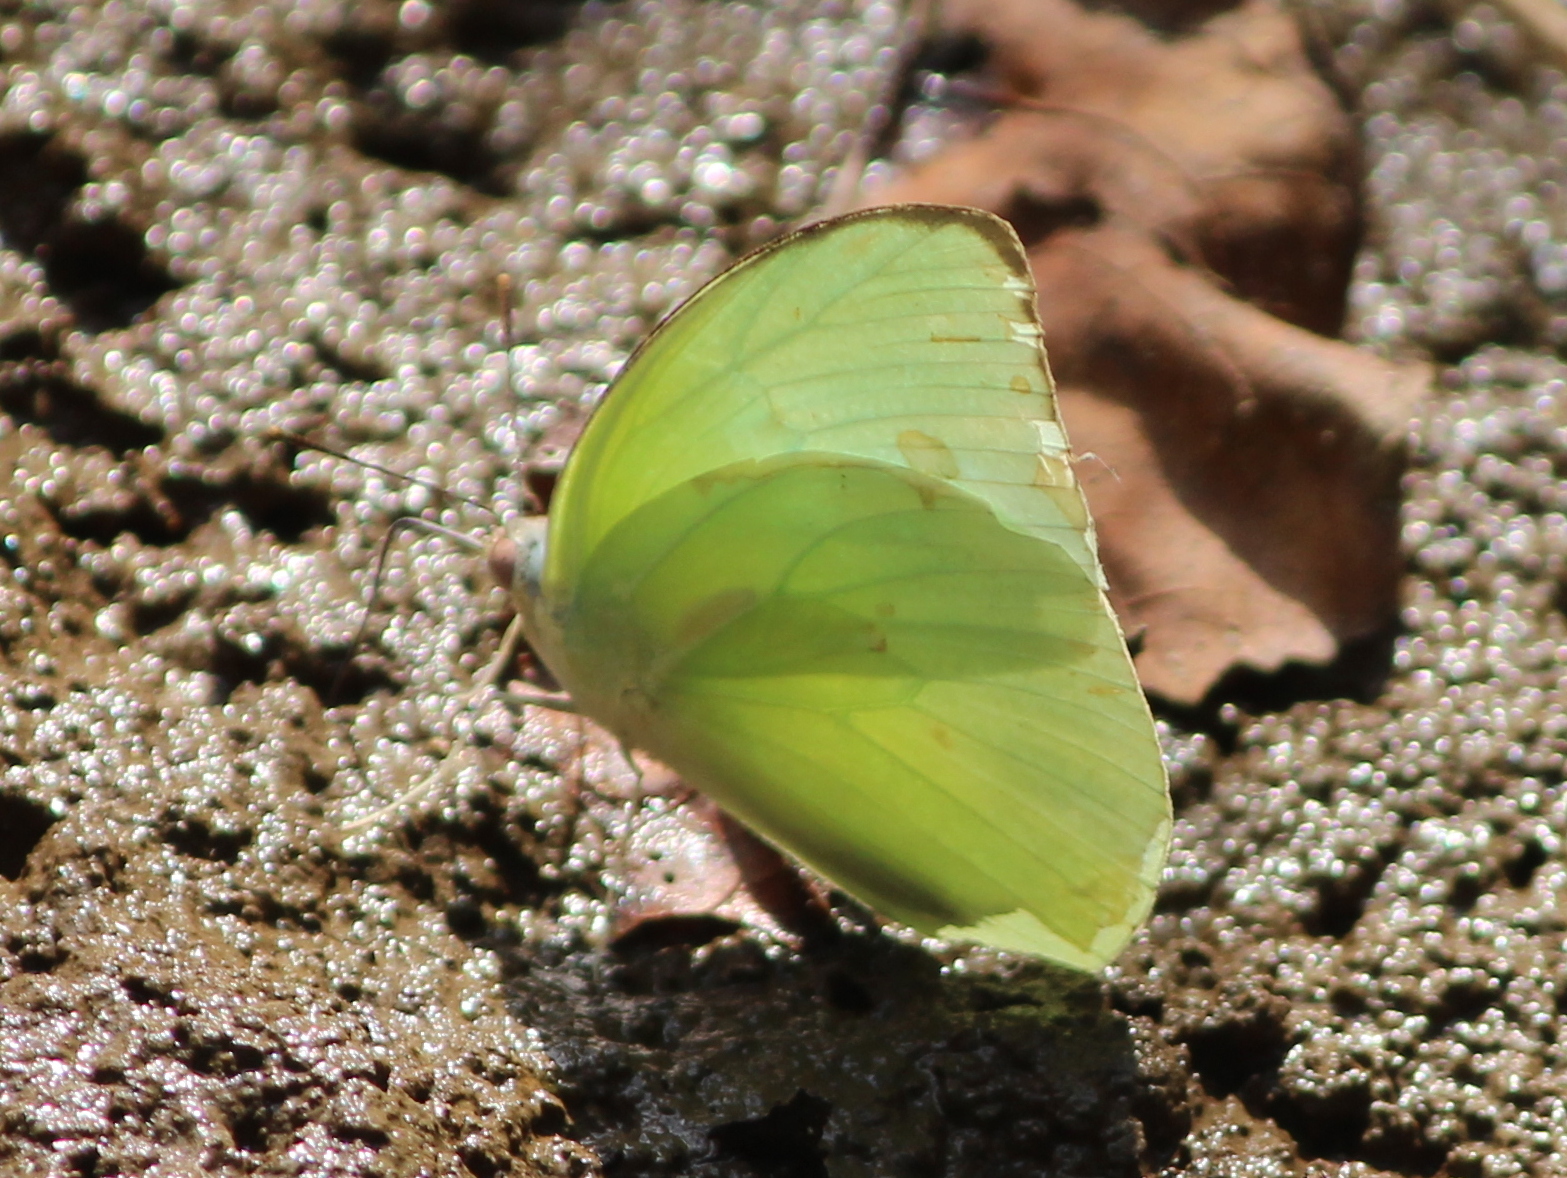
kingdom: Animalia
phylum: Arthropoda
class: Insecta
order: Lepidoptera
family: Pieridae
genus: Catopsilia
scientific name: Catopsilia pomona
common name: Common emigrant
